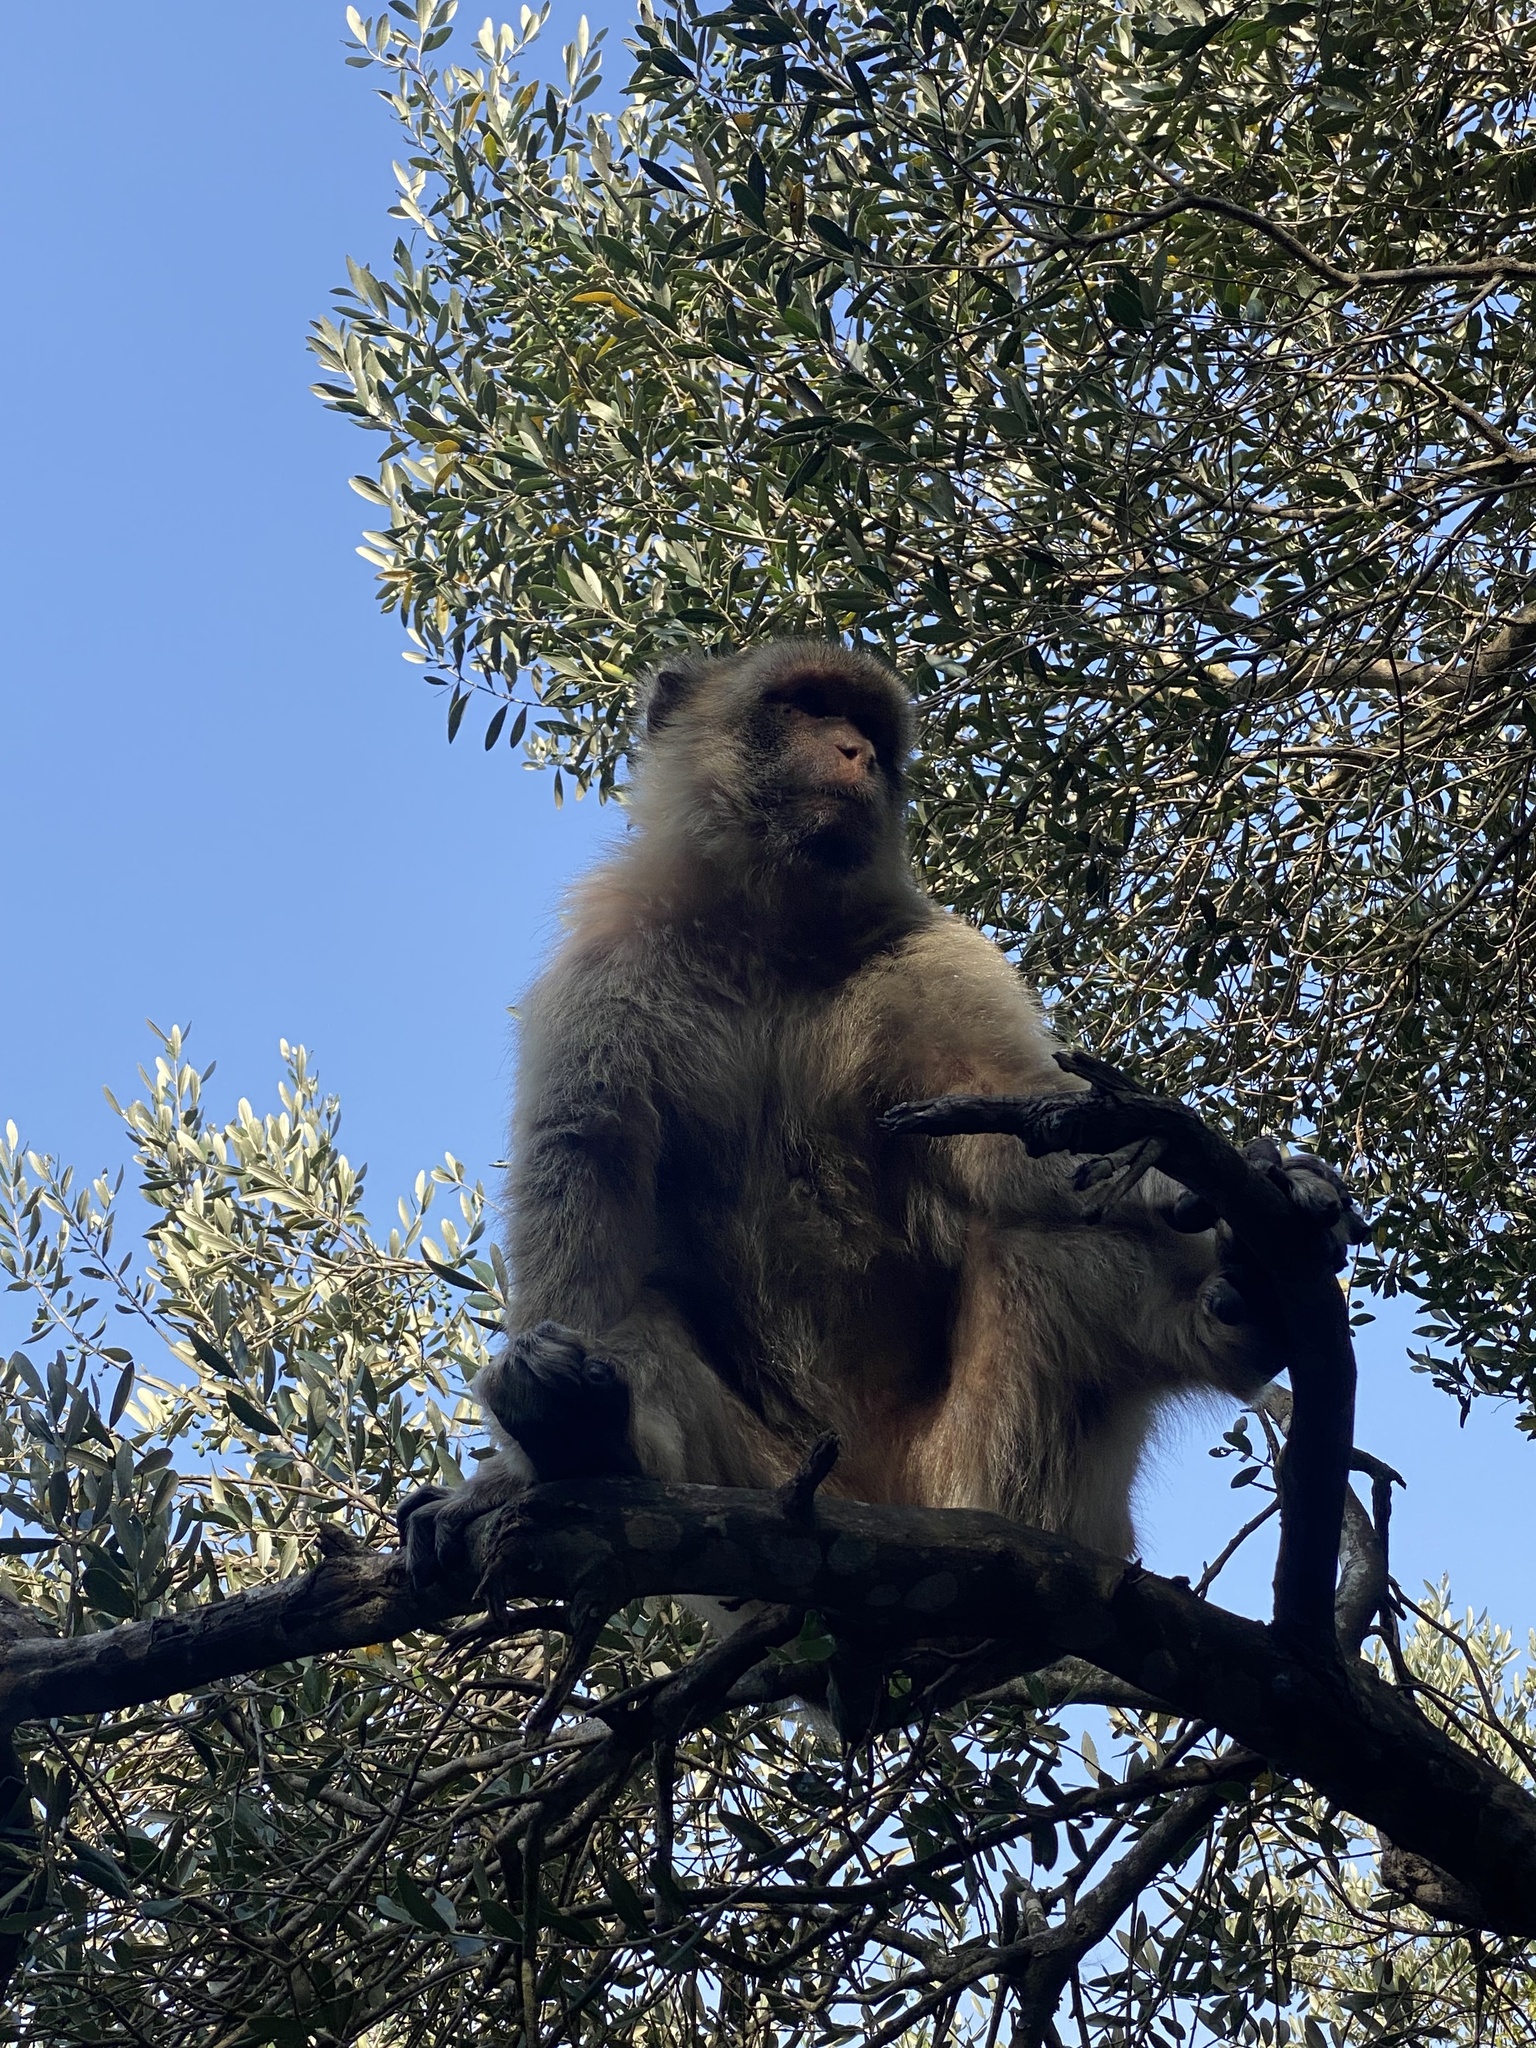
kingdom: Animalia
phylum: Chordata
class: Mammalia
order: Primates
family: Cercopithecidae
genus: Macaca
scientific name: Macaca sylvanus
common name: Barbary macaque
